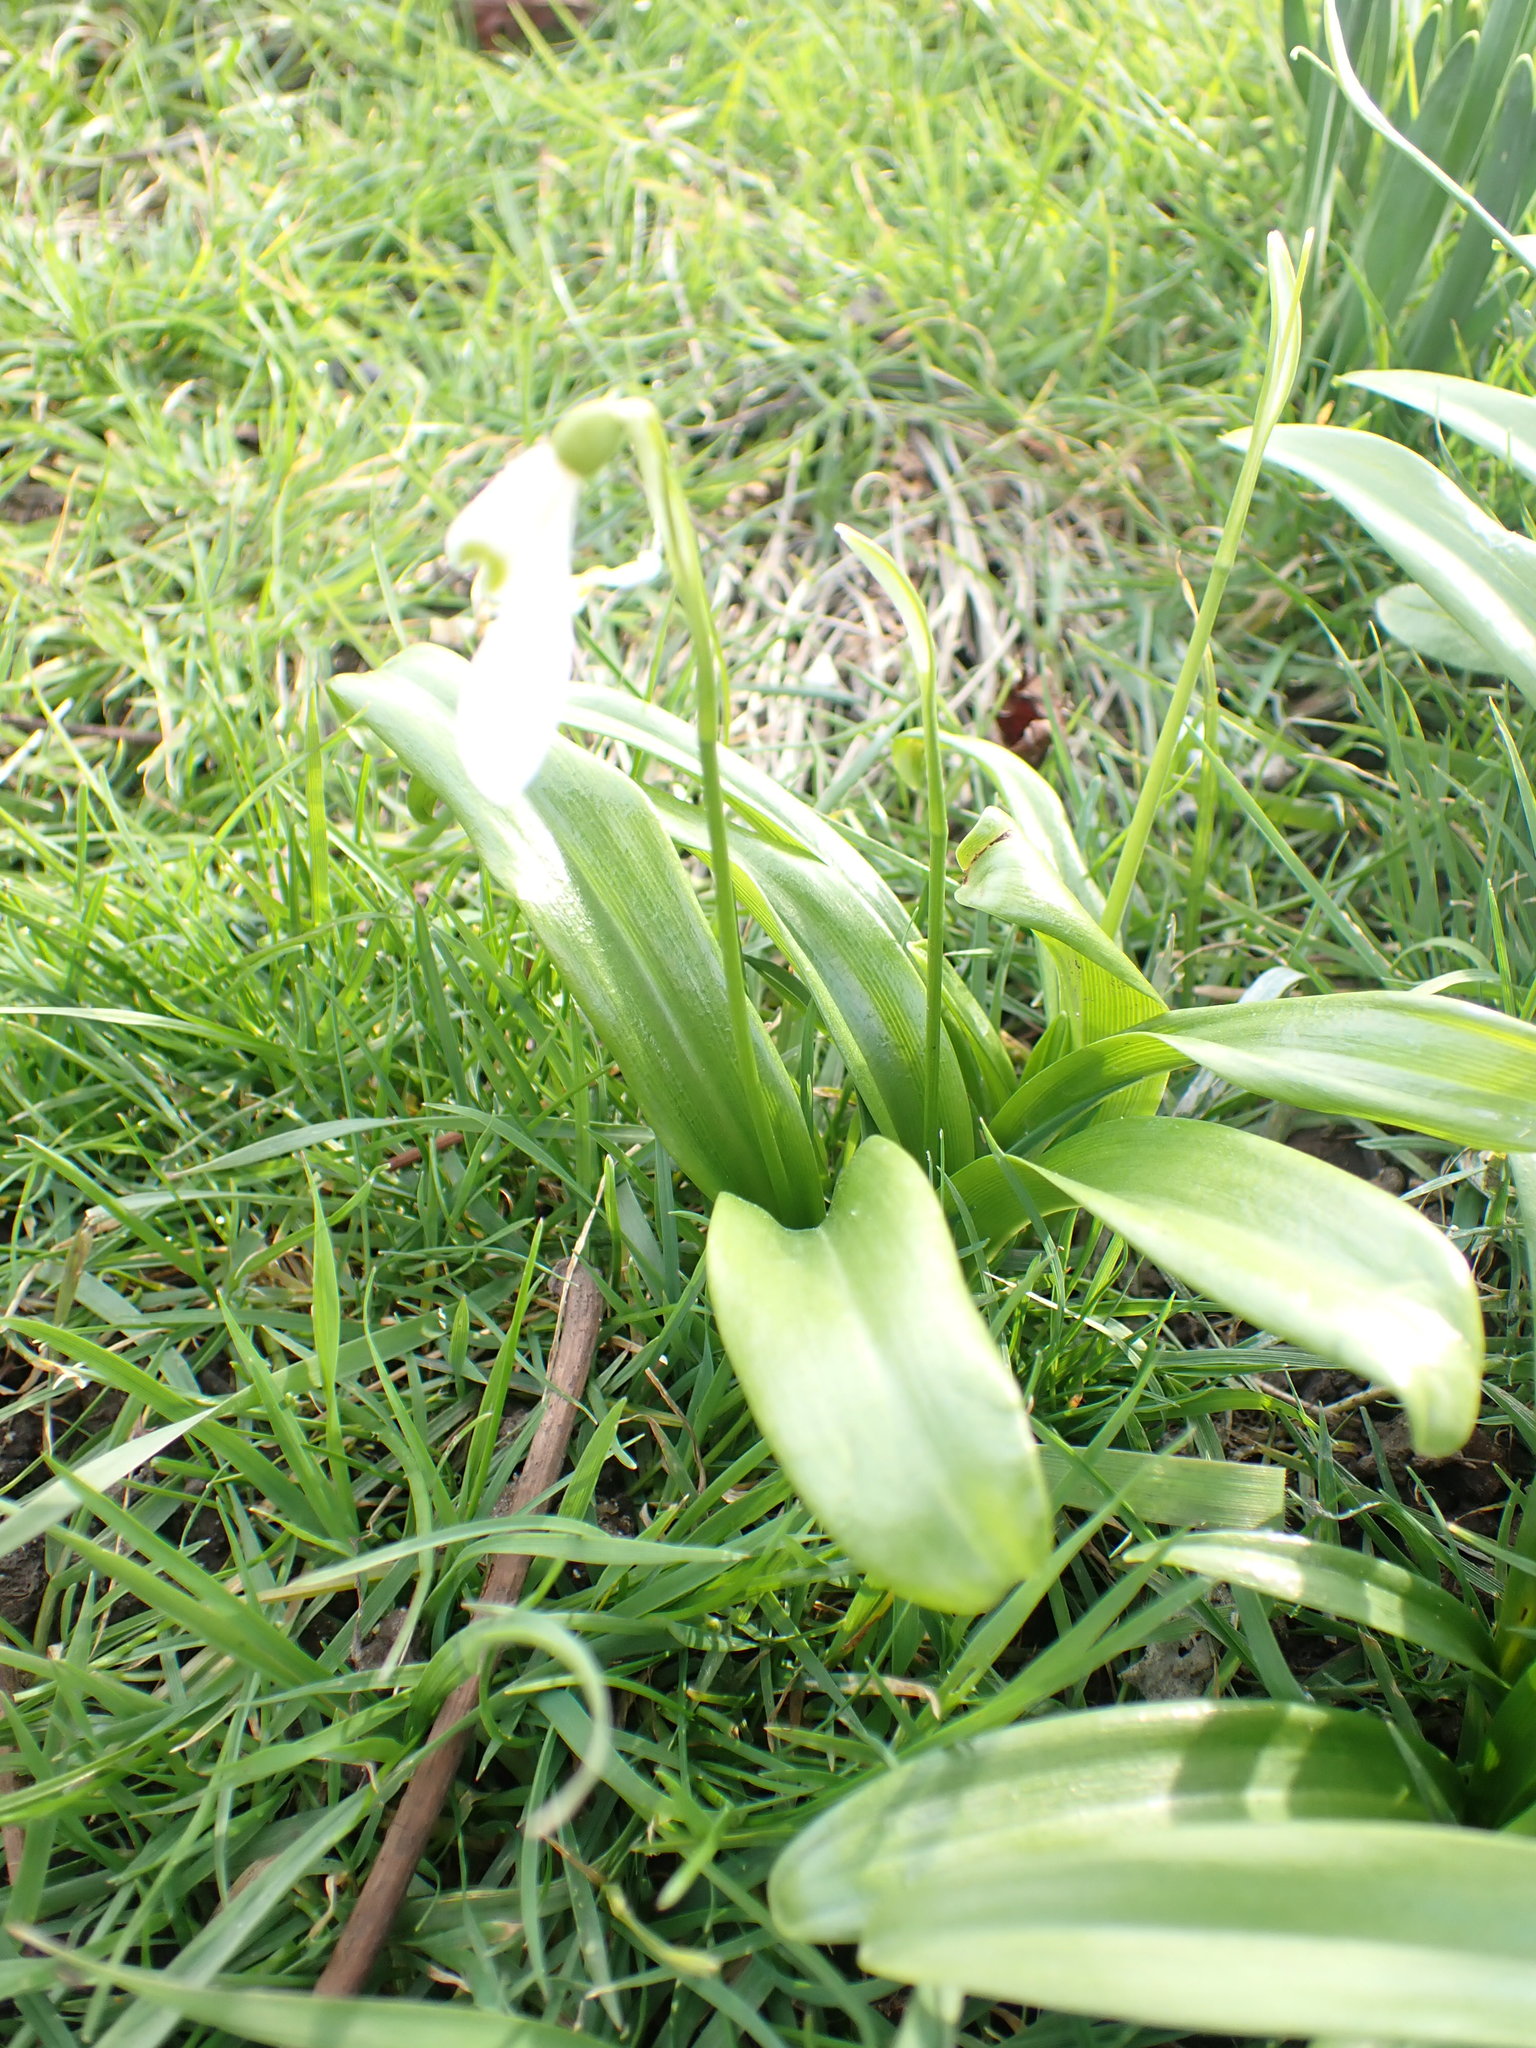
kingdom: Plantae
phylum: Tracheophyta
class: Liliopsida
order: Asparagales
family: Amaryllidaceae
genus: Galanthus
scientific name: Galanthus woronowii
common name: Green snowdrop
